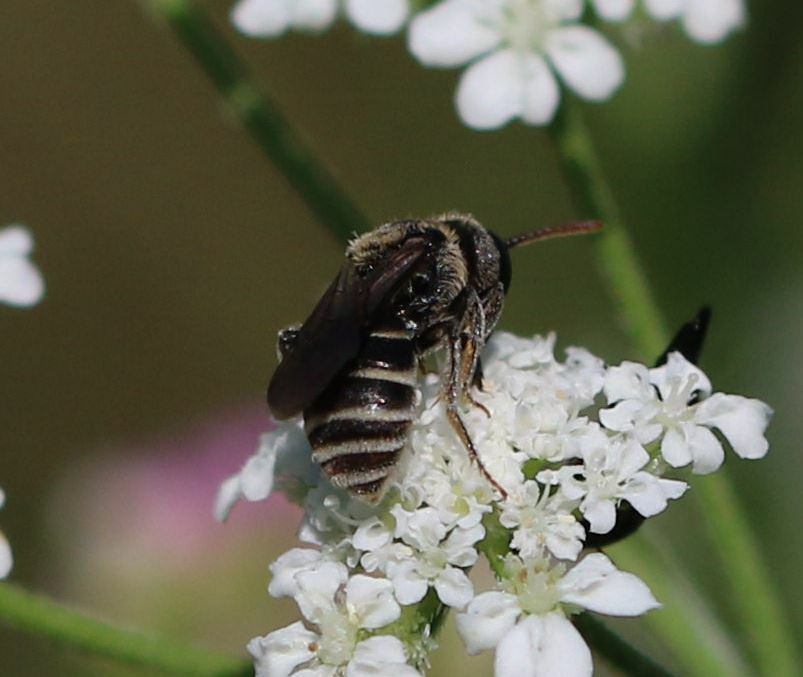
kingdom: Animalia
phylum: Arthropoda
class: Insecta
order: Hymenoptera
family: Andrenidae
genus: Andrena
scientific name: Andrena colletiformis
